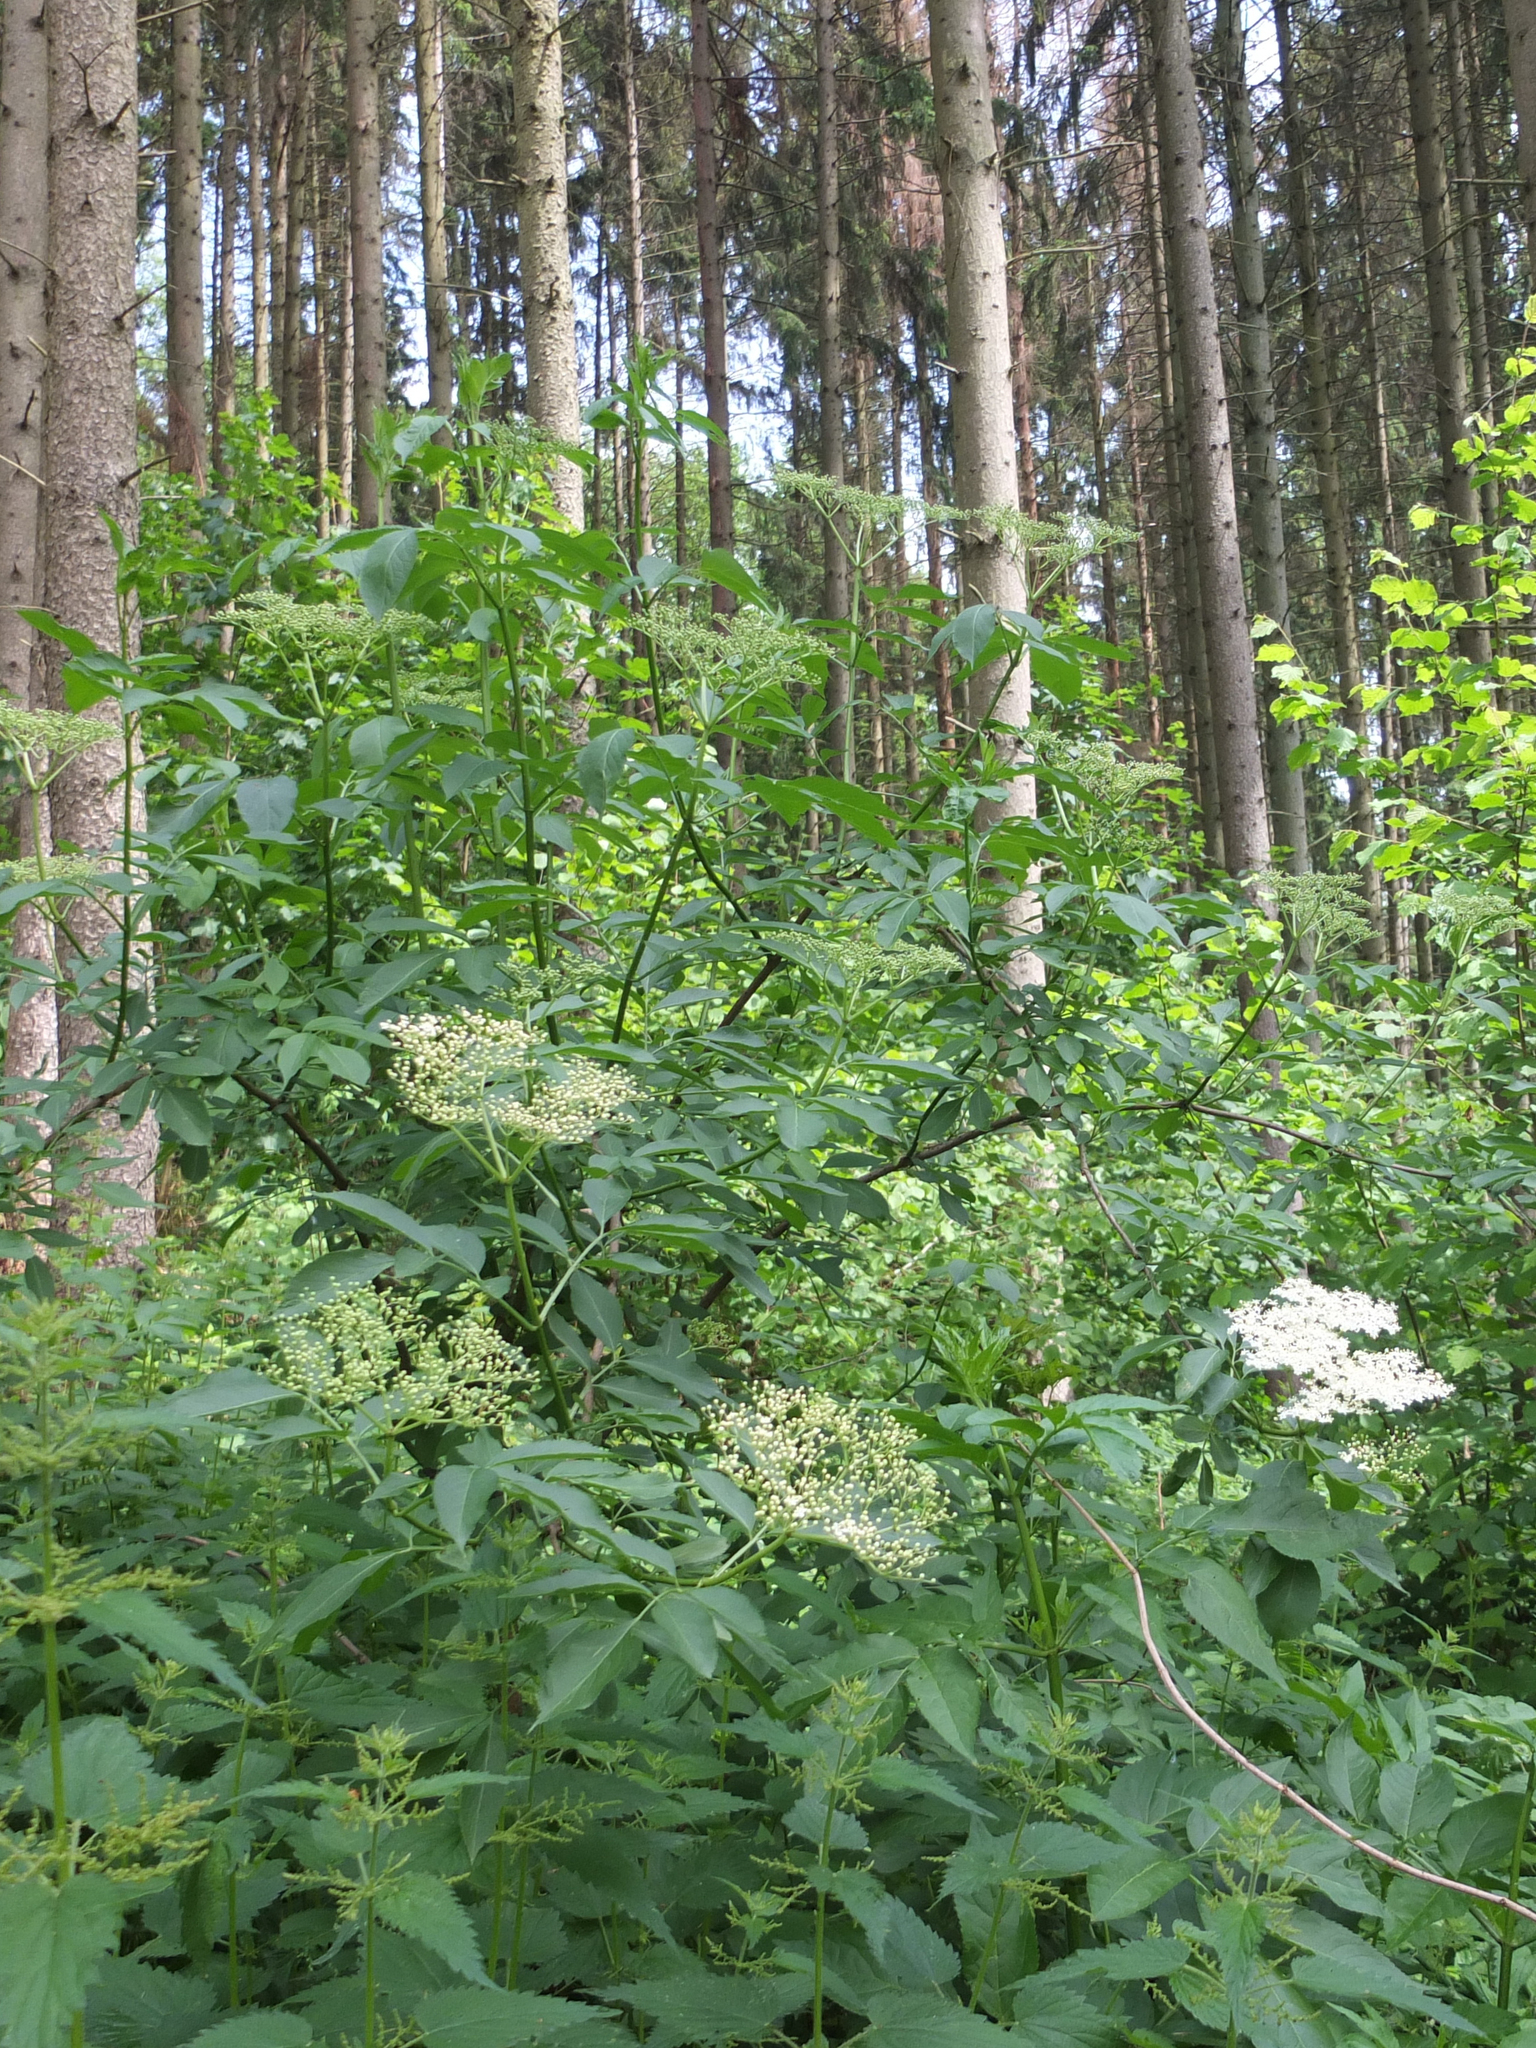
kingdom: Plantae
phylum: Tracheophyta
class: Magnoliopsida
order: Dipsacales
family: Viburnaceae
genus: Sambucus
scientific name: Sambucus nigra
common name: Elder
